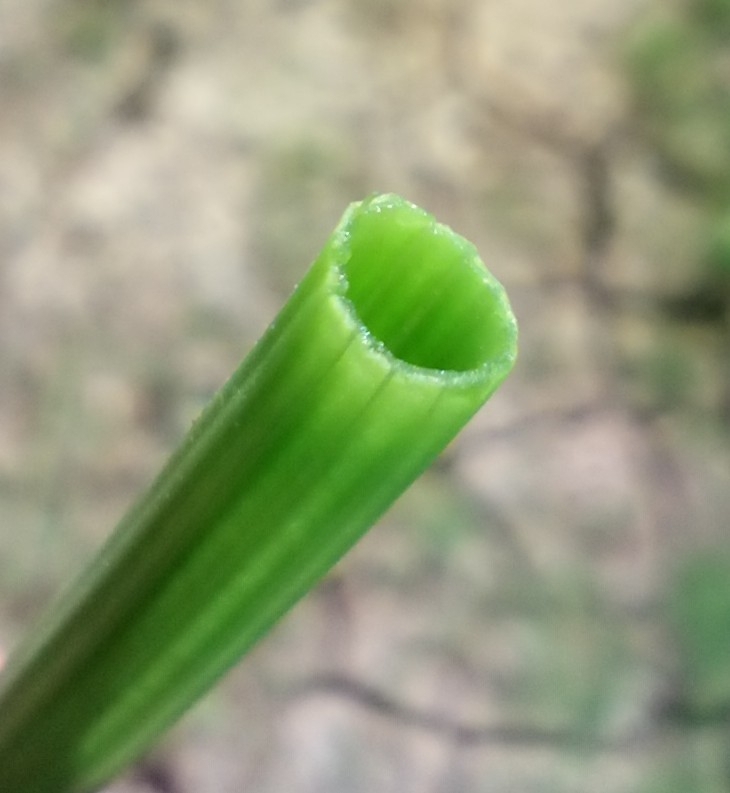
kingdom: Plantae
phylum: Tracheophyta
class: Polypodiopsida
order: Equisetales
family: Equisetaceae
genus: Equisetum
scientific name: Equisetum fluviatile
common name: Water horsetail
